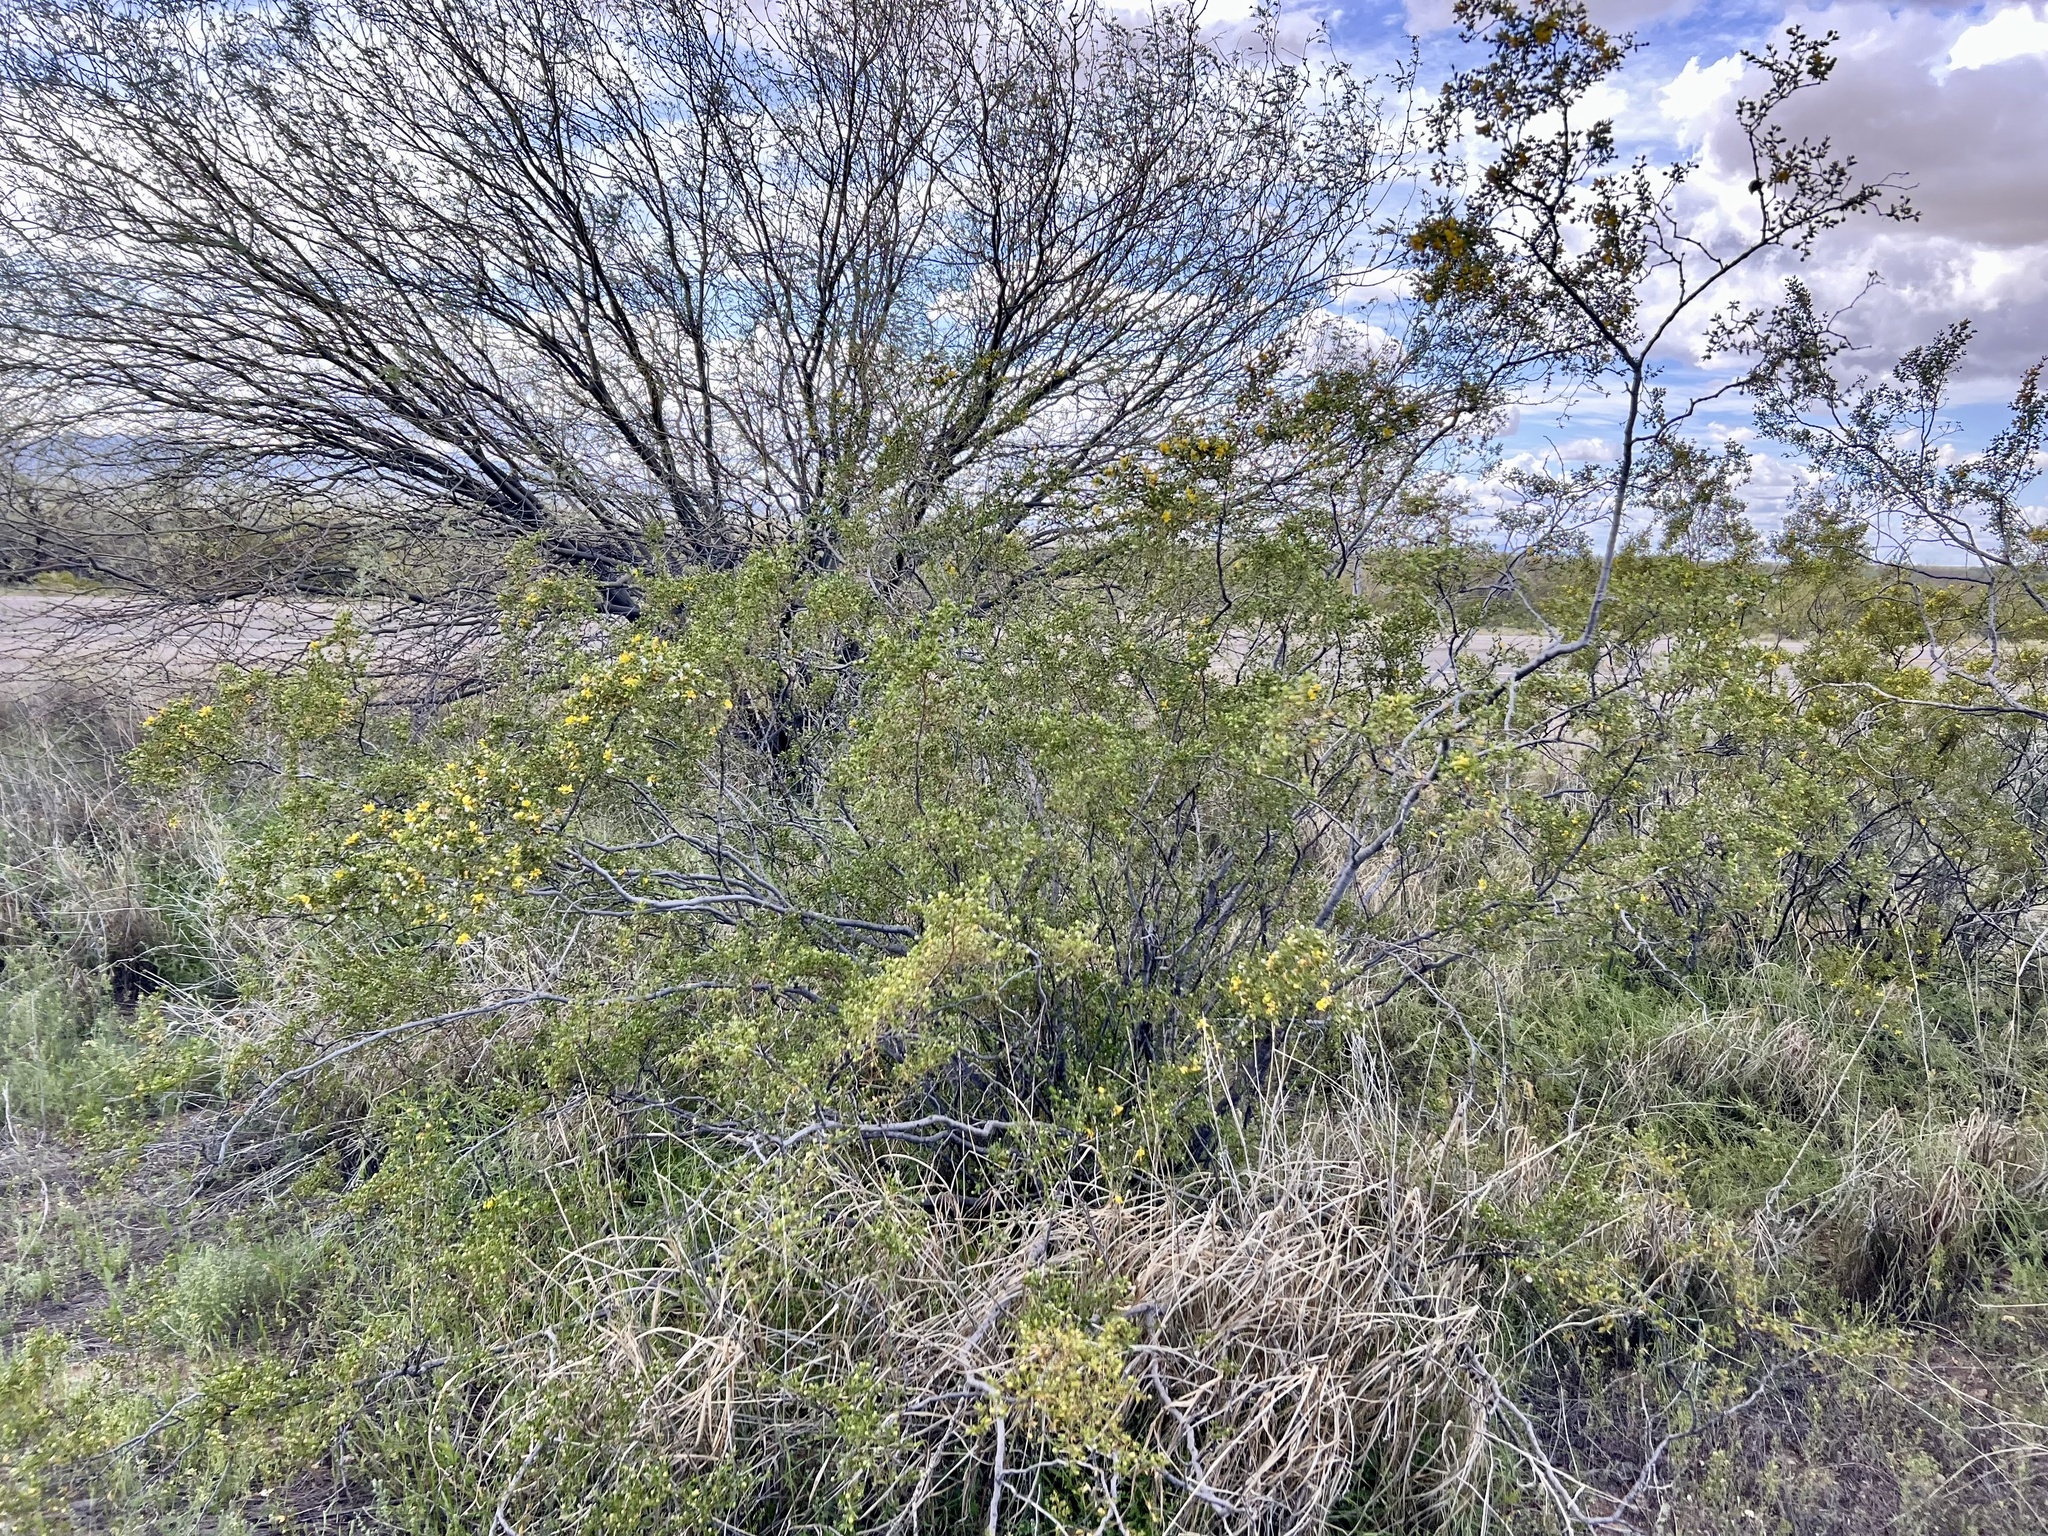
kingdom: Plantae
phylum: Tracheophyta
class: Magnoliopsida
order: Zygophyllales
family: Zygophyllaceae
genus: Larrea
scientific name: Larrea tridentata
